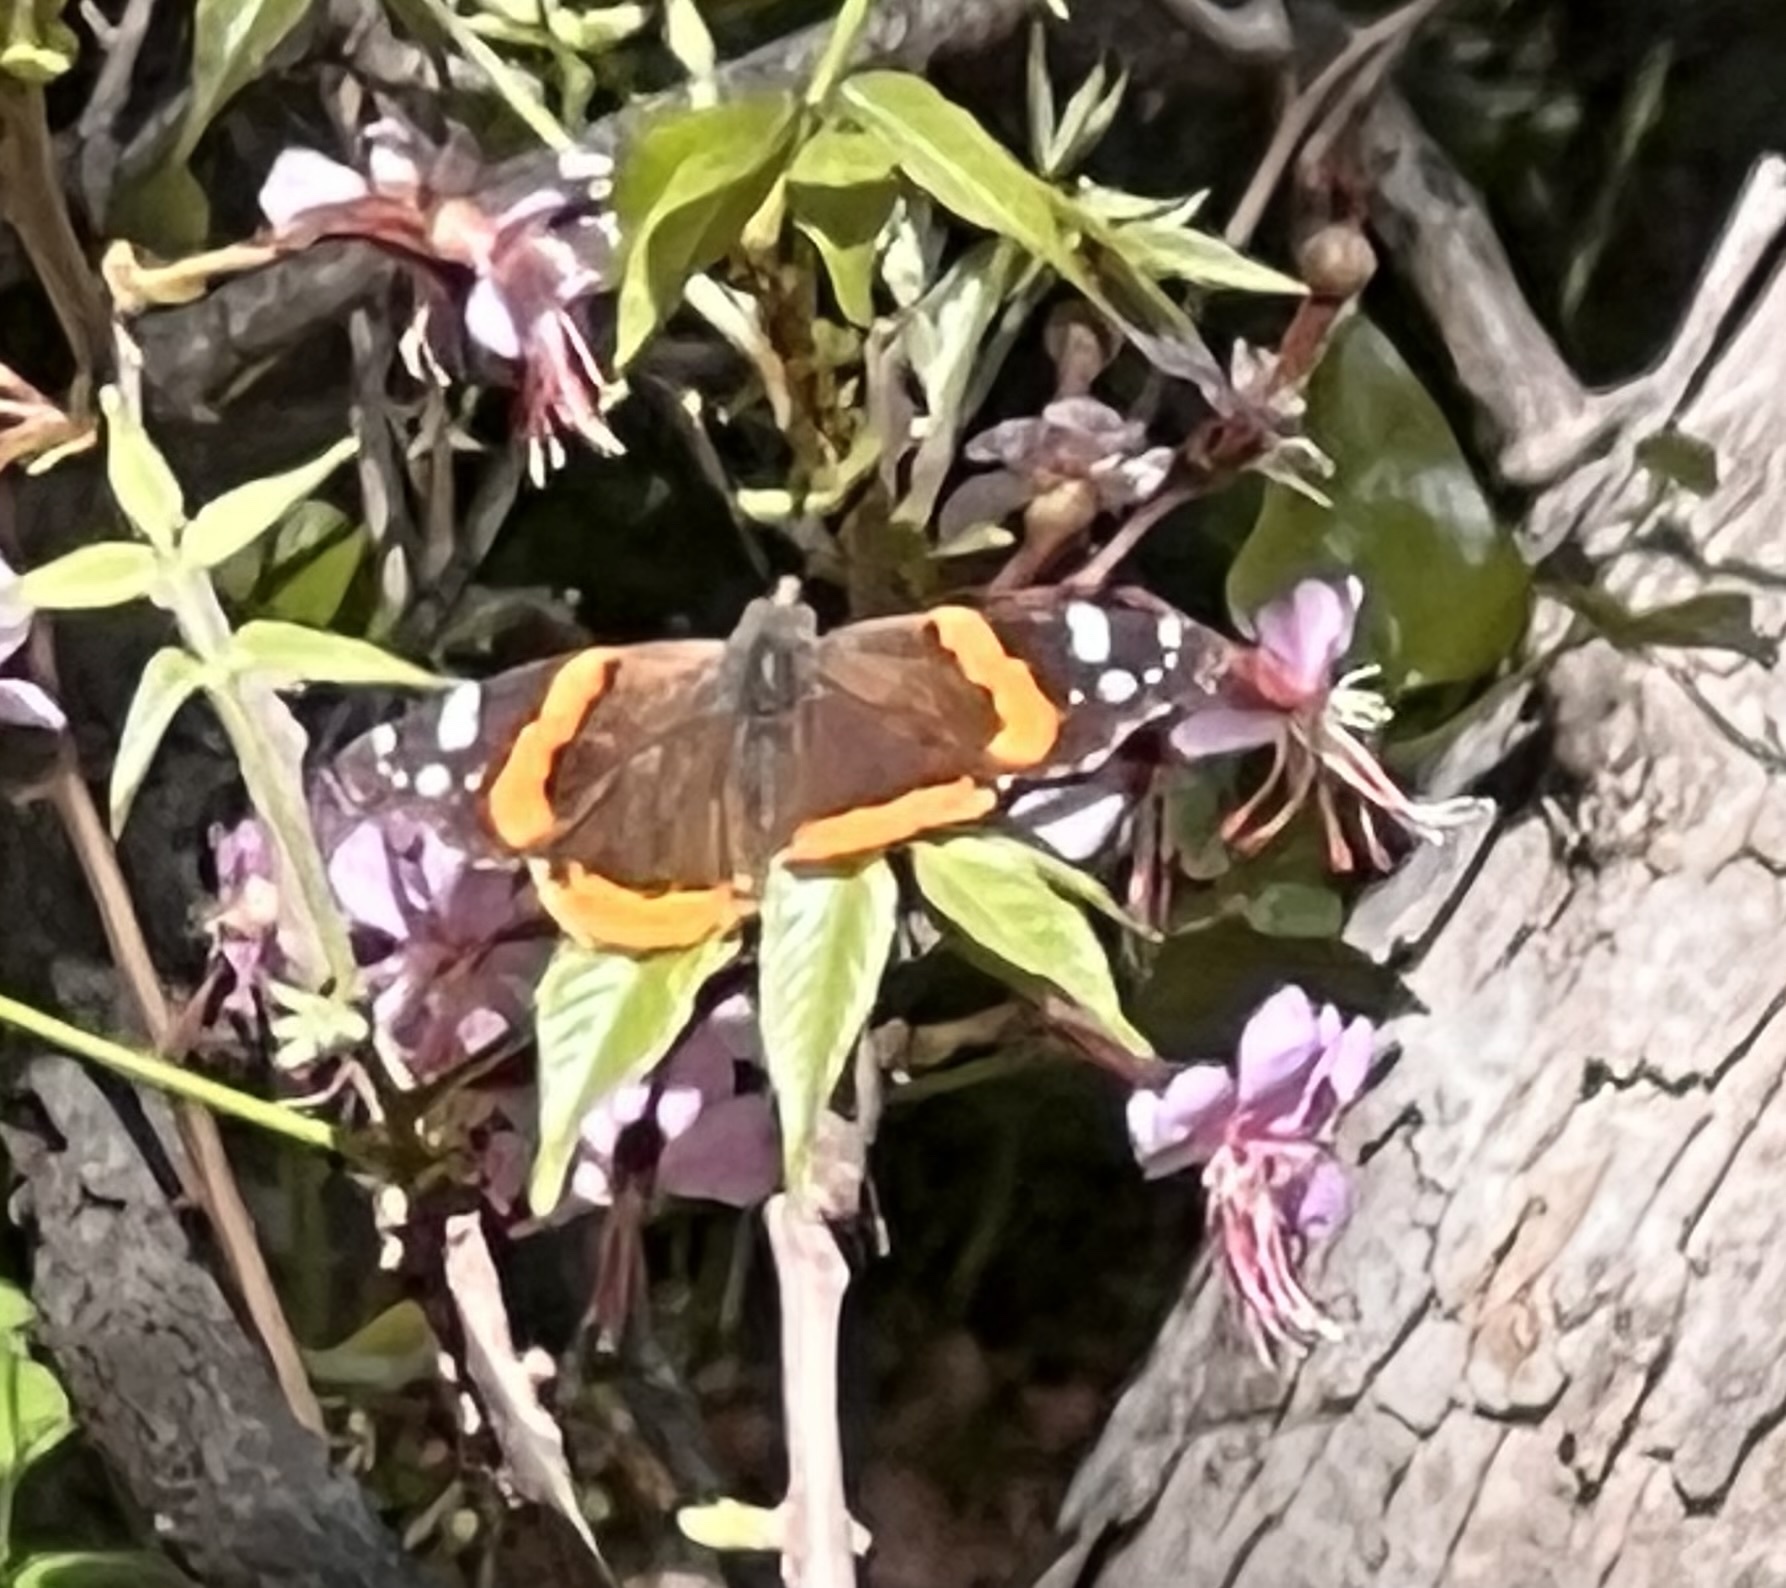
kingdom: Animalia
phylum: Arthropoda
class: Insecta
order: Lepidoptera
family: Nymphalidae
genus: Vanessa
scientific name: Vanessa atalanta
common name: Red admiral
